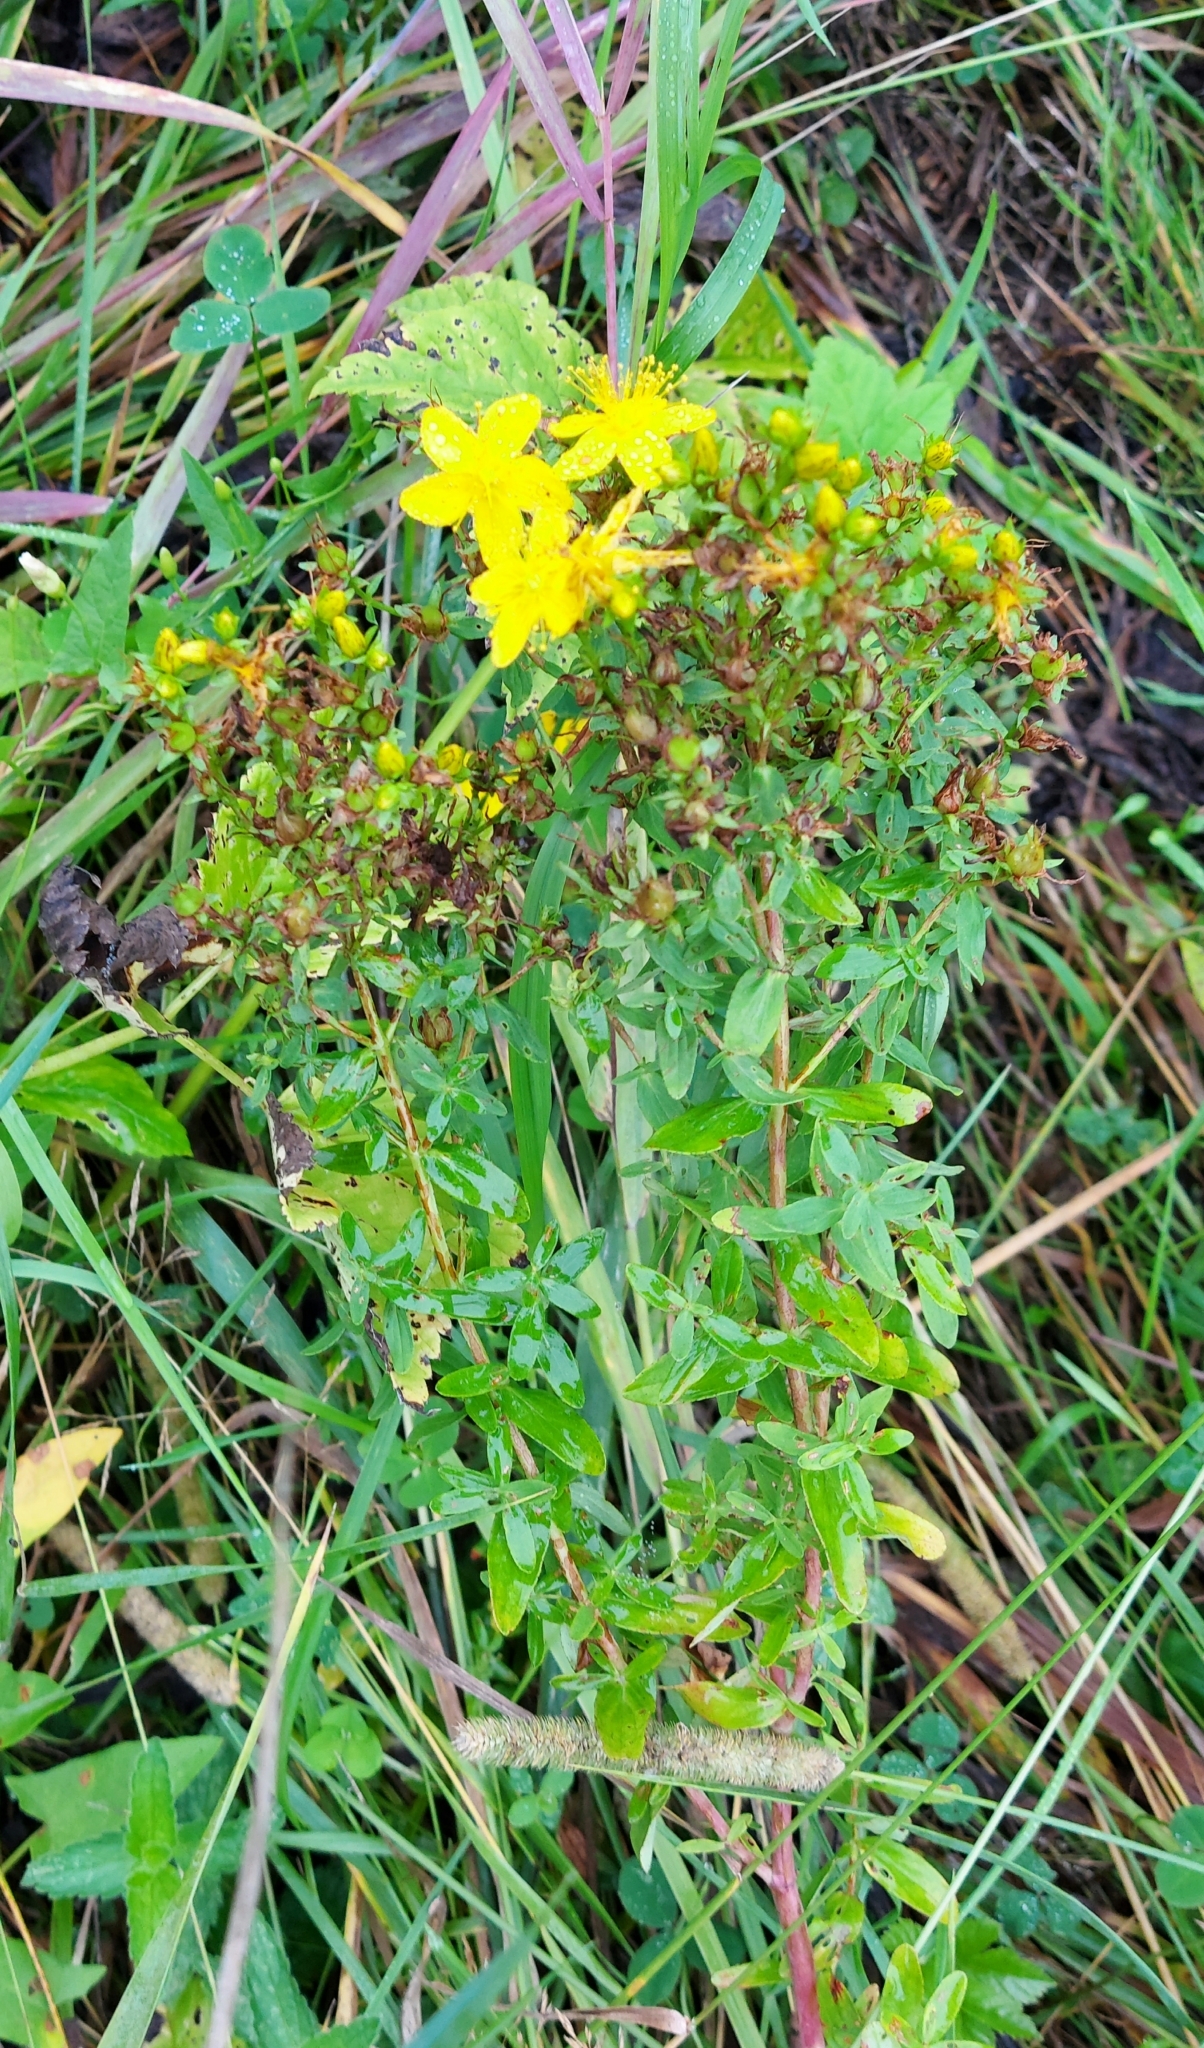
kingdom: Plantae
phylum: Tracheophyta
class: Magnoliopsida
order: Malpighiales
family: Hypericaceae
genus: Hypericum
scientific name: Hypericum perforatum
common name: Common st. johnswort
